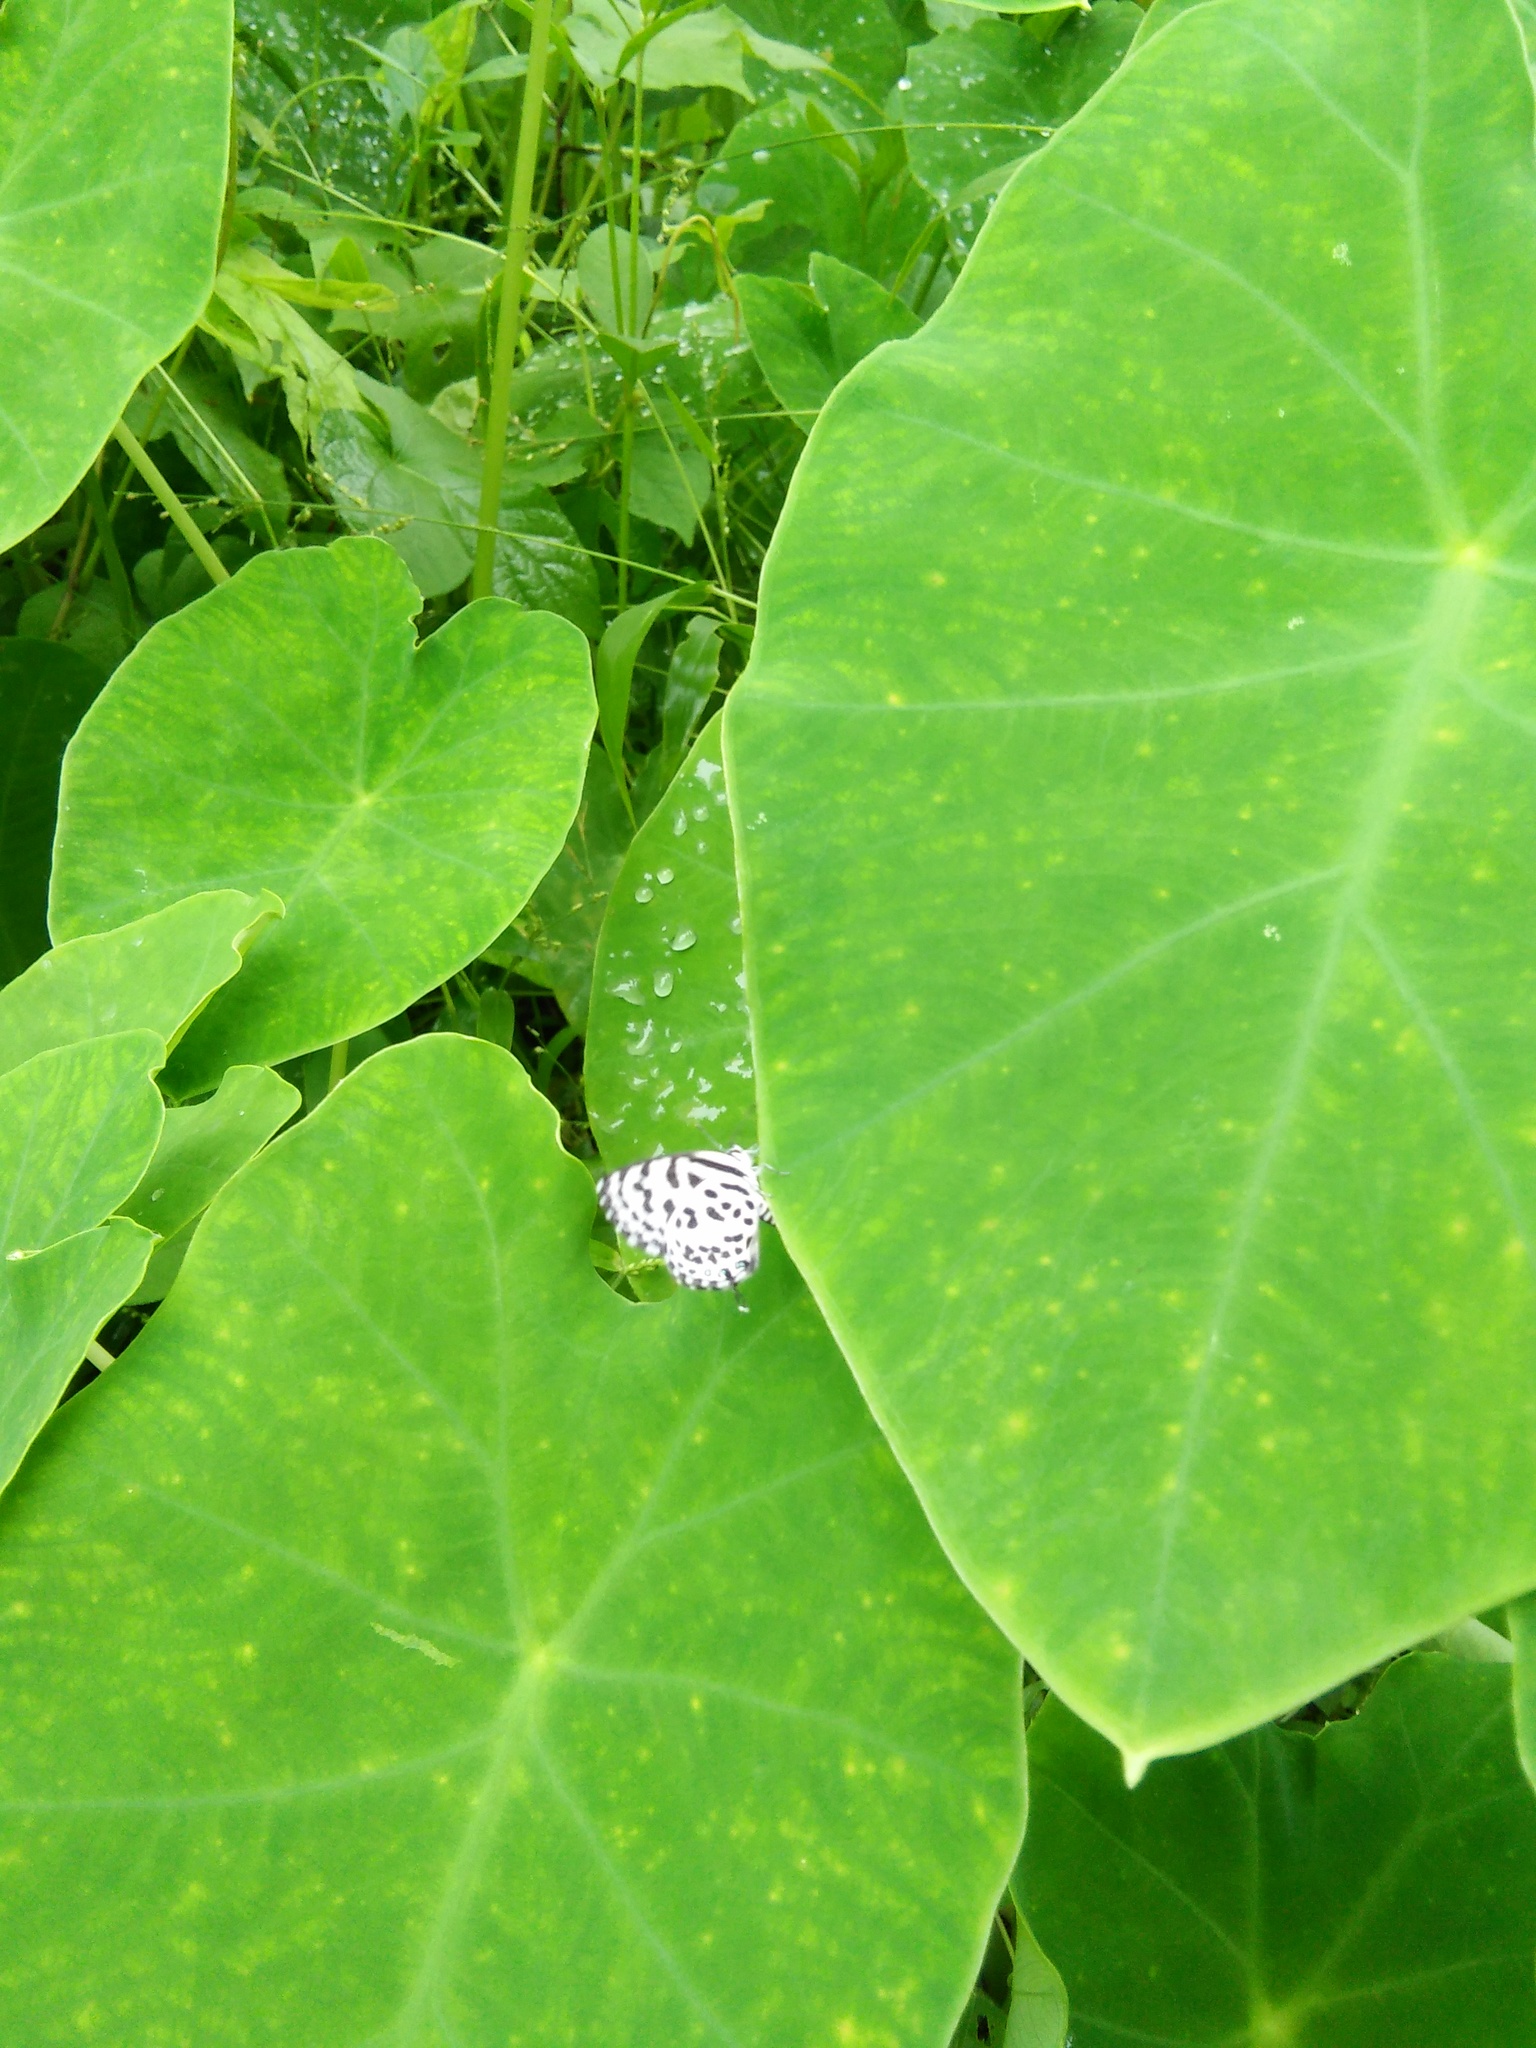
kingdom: Animalia
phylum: Arthropoda
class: Insecta
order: Lepidoptera
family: Lycaenidae
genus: Castalius
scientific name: Castalius rosimon
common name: Common pierrot
